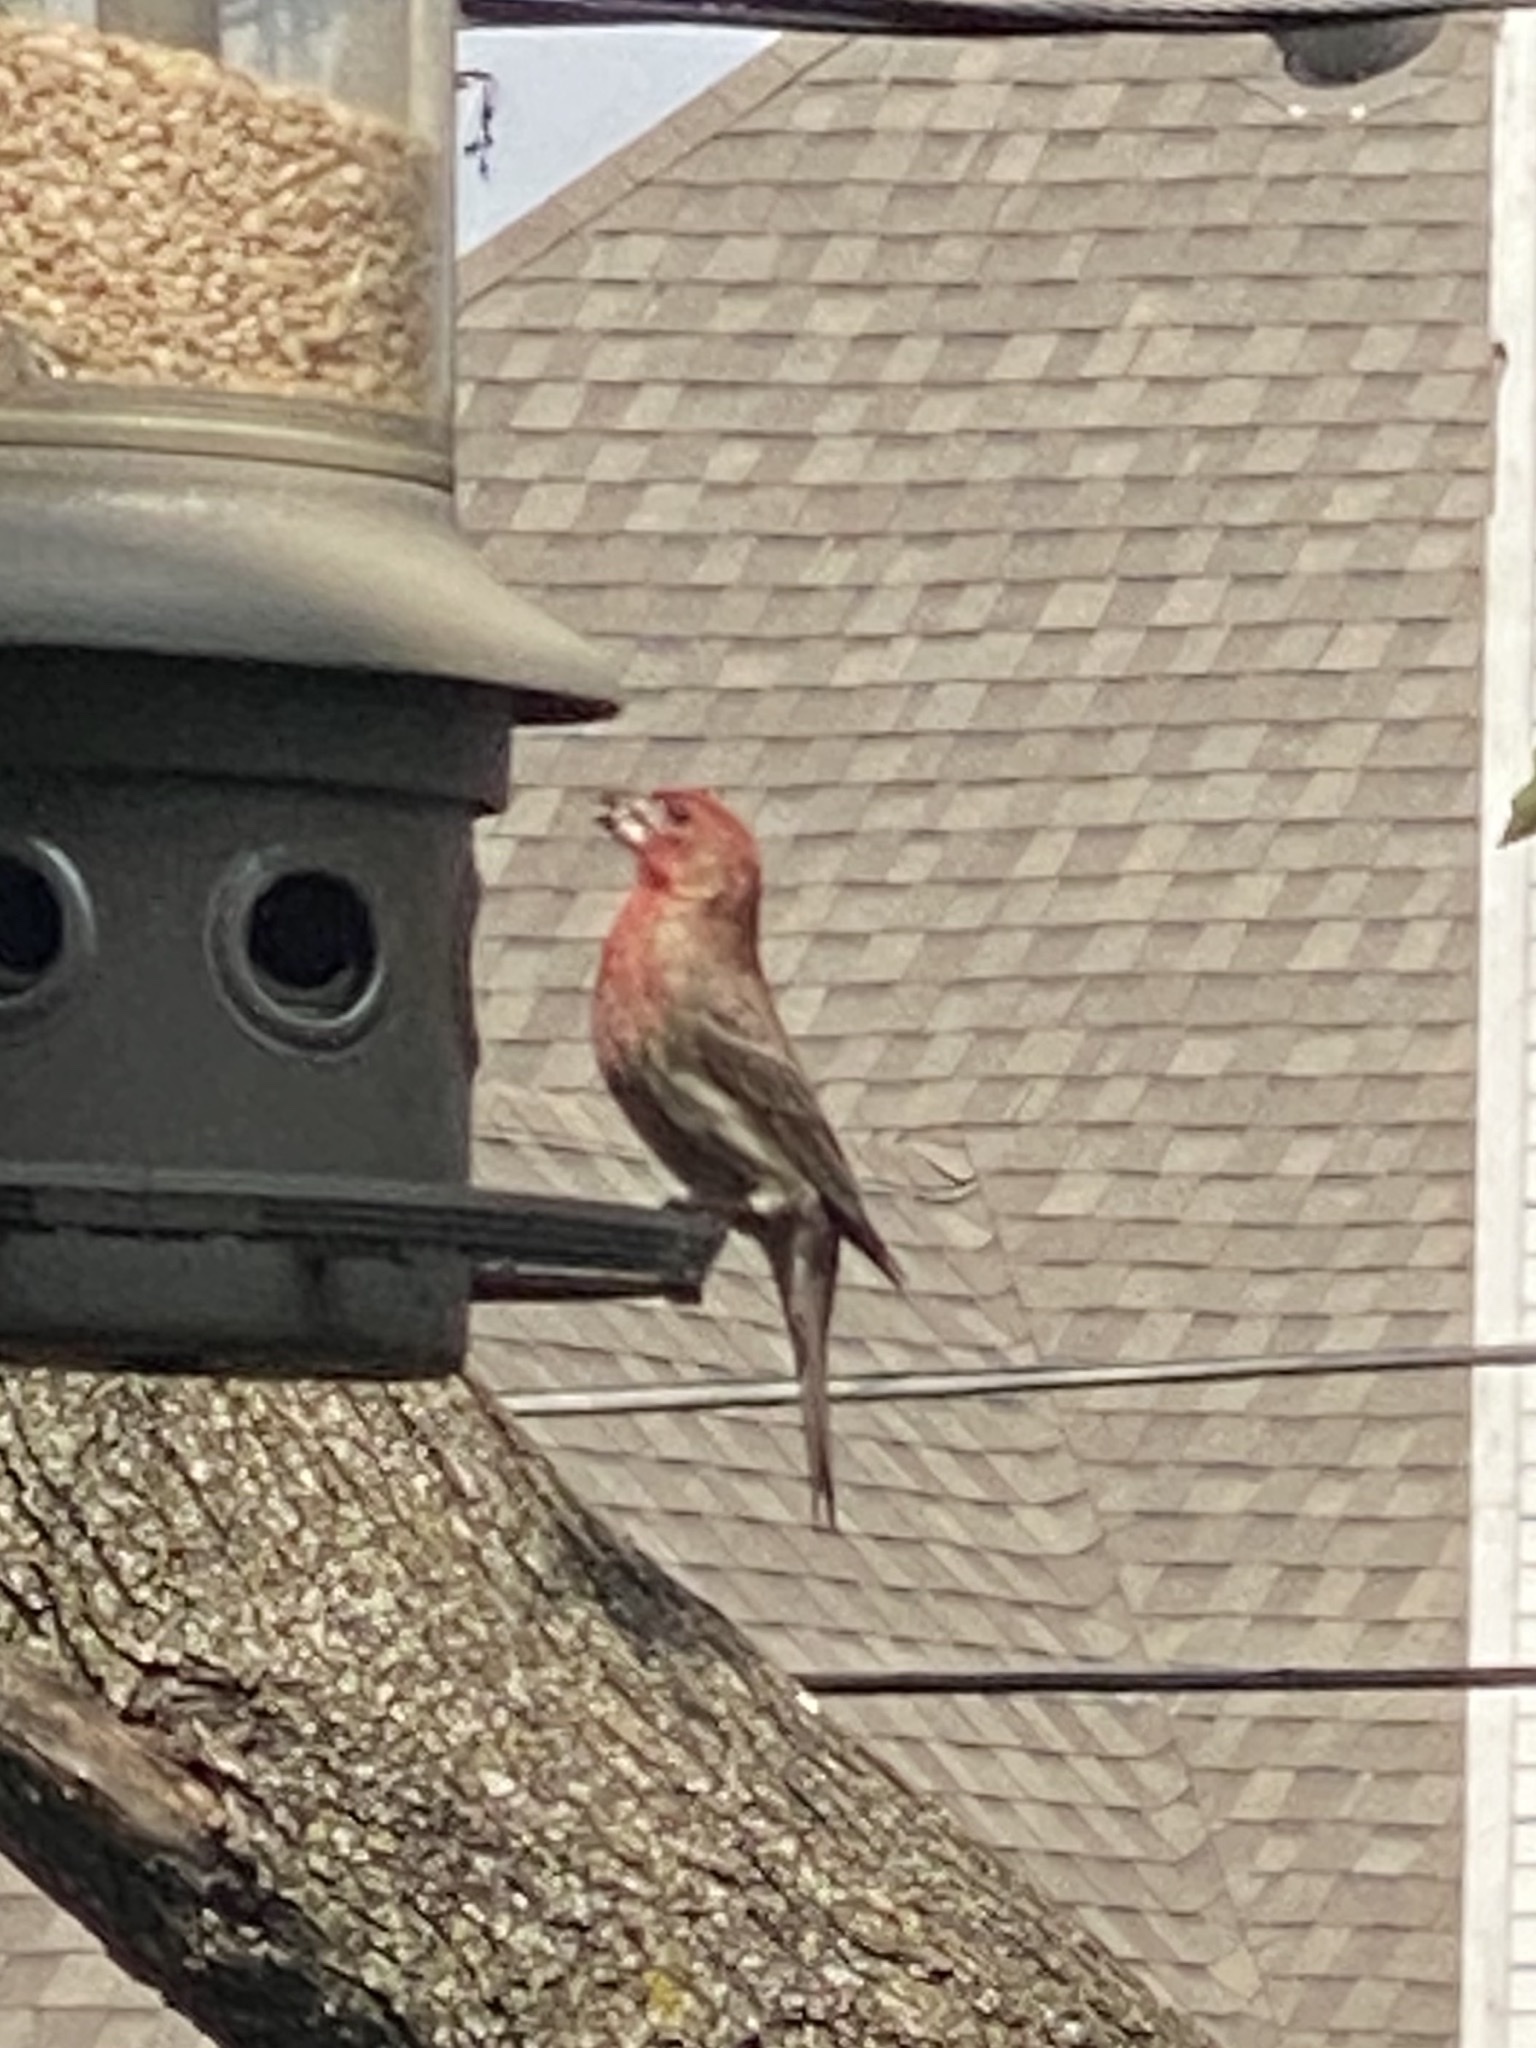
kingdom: Animalia
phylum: Chordata
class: Aves
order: Passeriformes
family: Fringillidae
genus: Haemorhous
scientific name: Haemorhous mexicanus
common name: House finch
